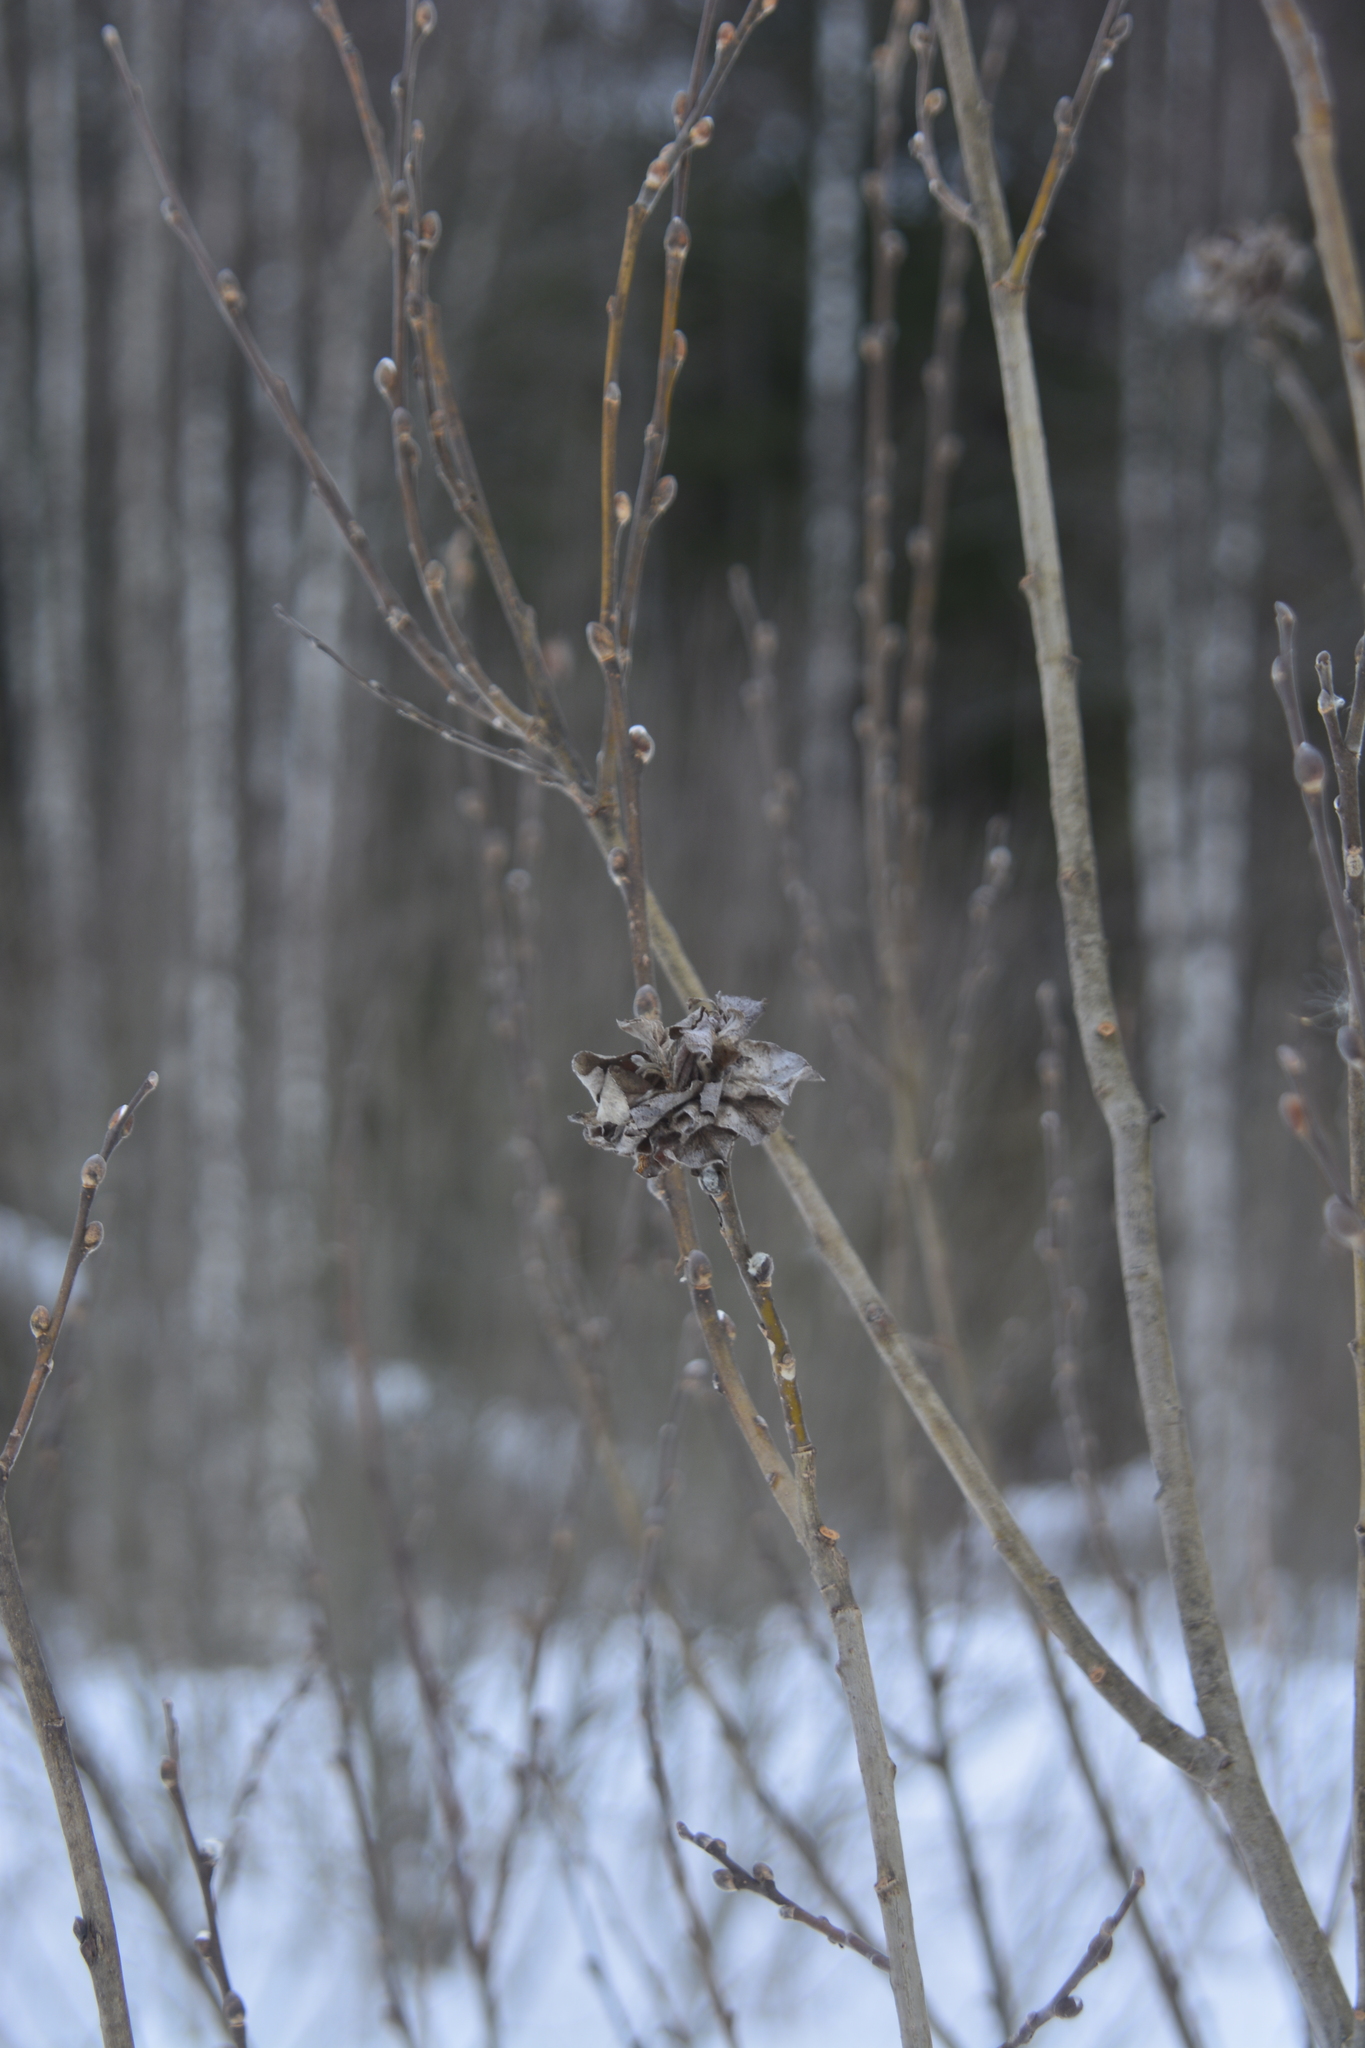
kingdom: Plantae
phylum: Tracheophyta
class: Magnoliopsida
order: Malpighiales
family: Salicaceae
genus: Salix
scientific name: Salix cinerea
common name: Common sallow
